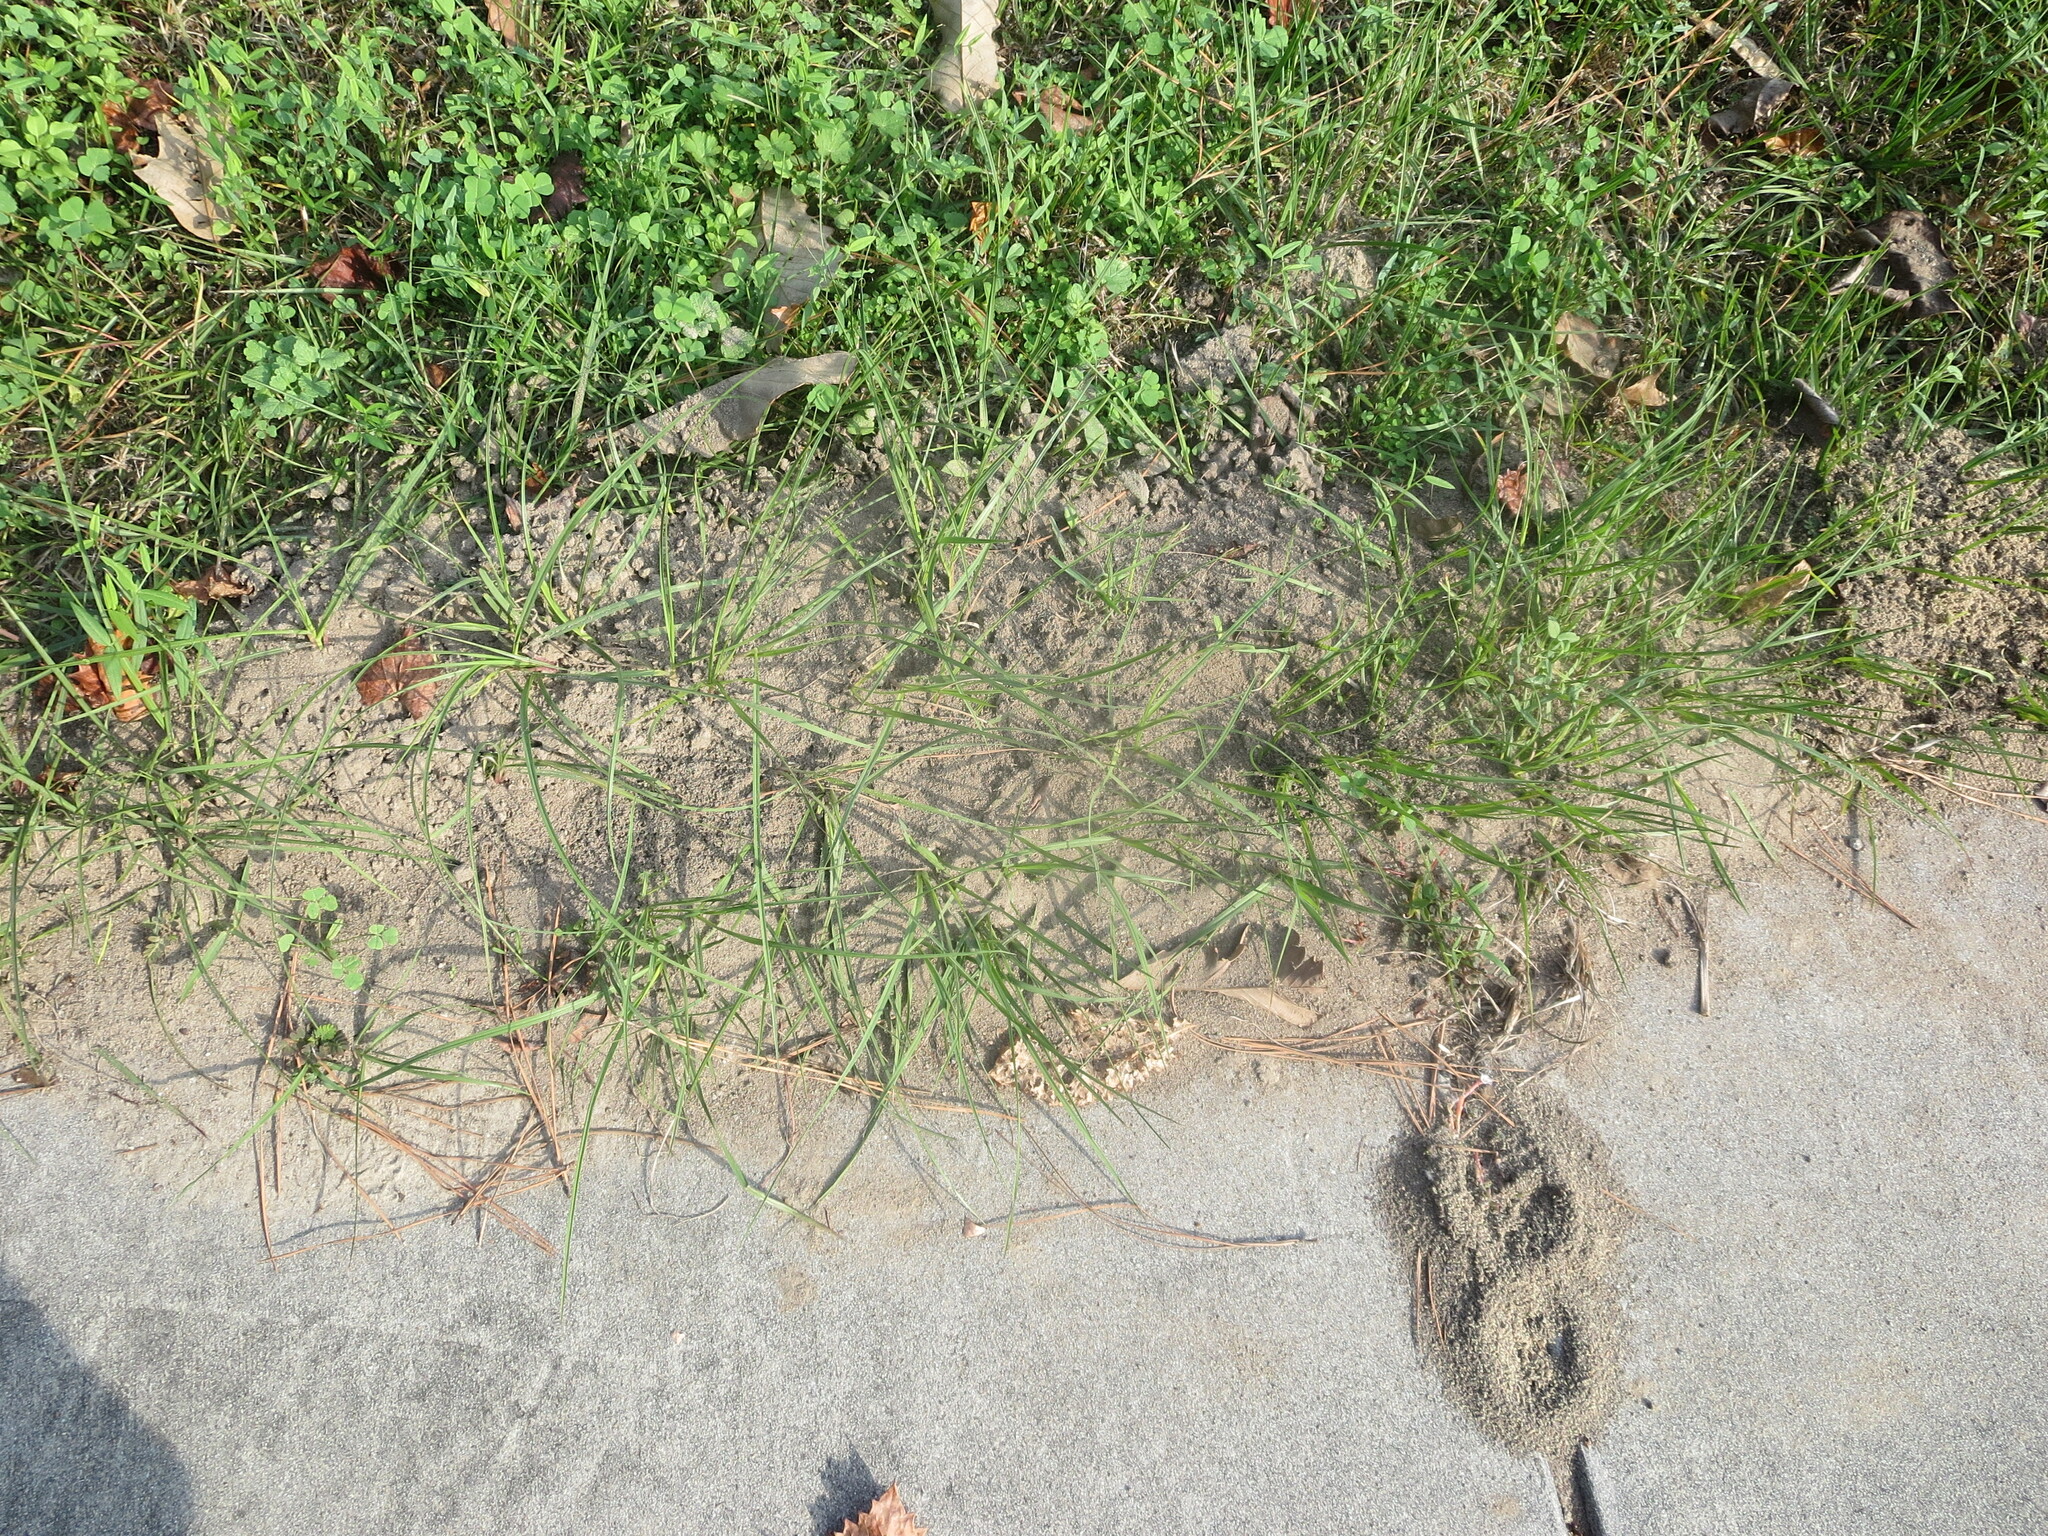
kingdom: Animalia
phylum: Arthropoda
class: Insecta
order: Hymenoptera
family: Formicidae
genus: Solenopsis
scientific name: Solenopsis invicta
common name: Red imported fire ant
